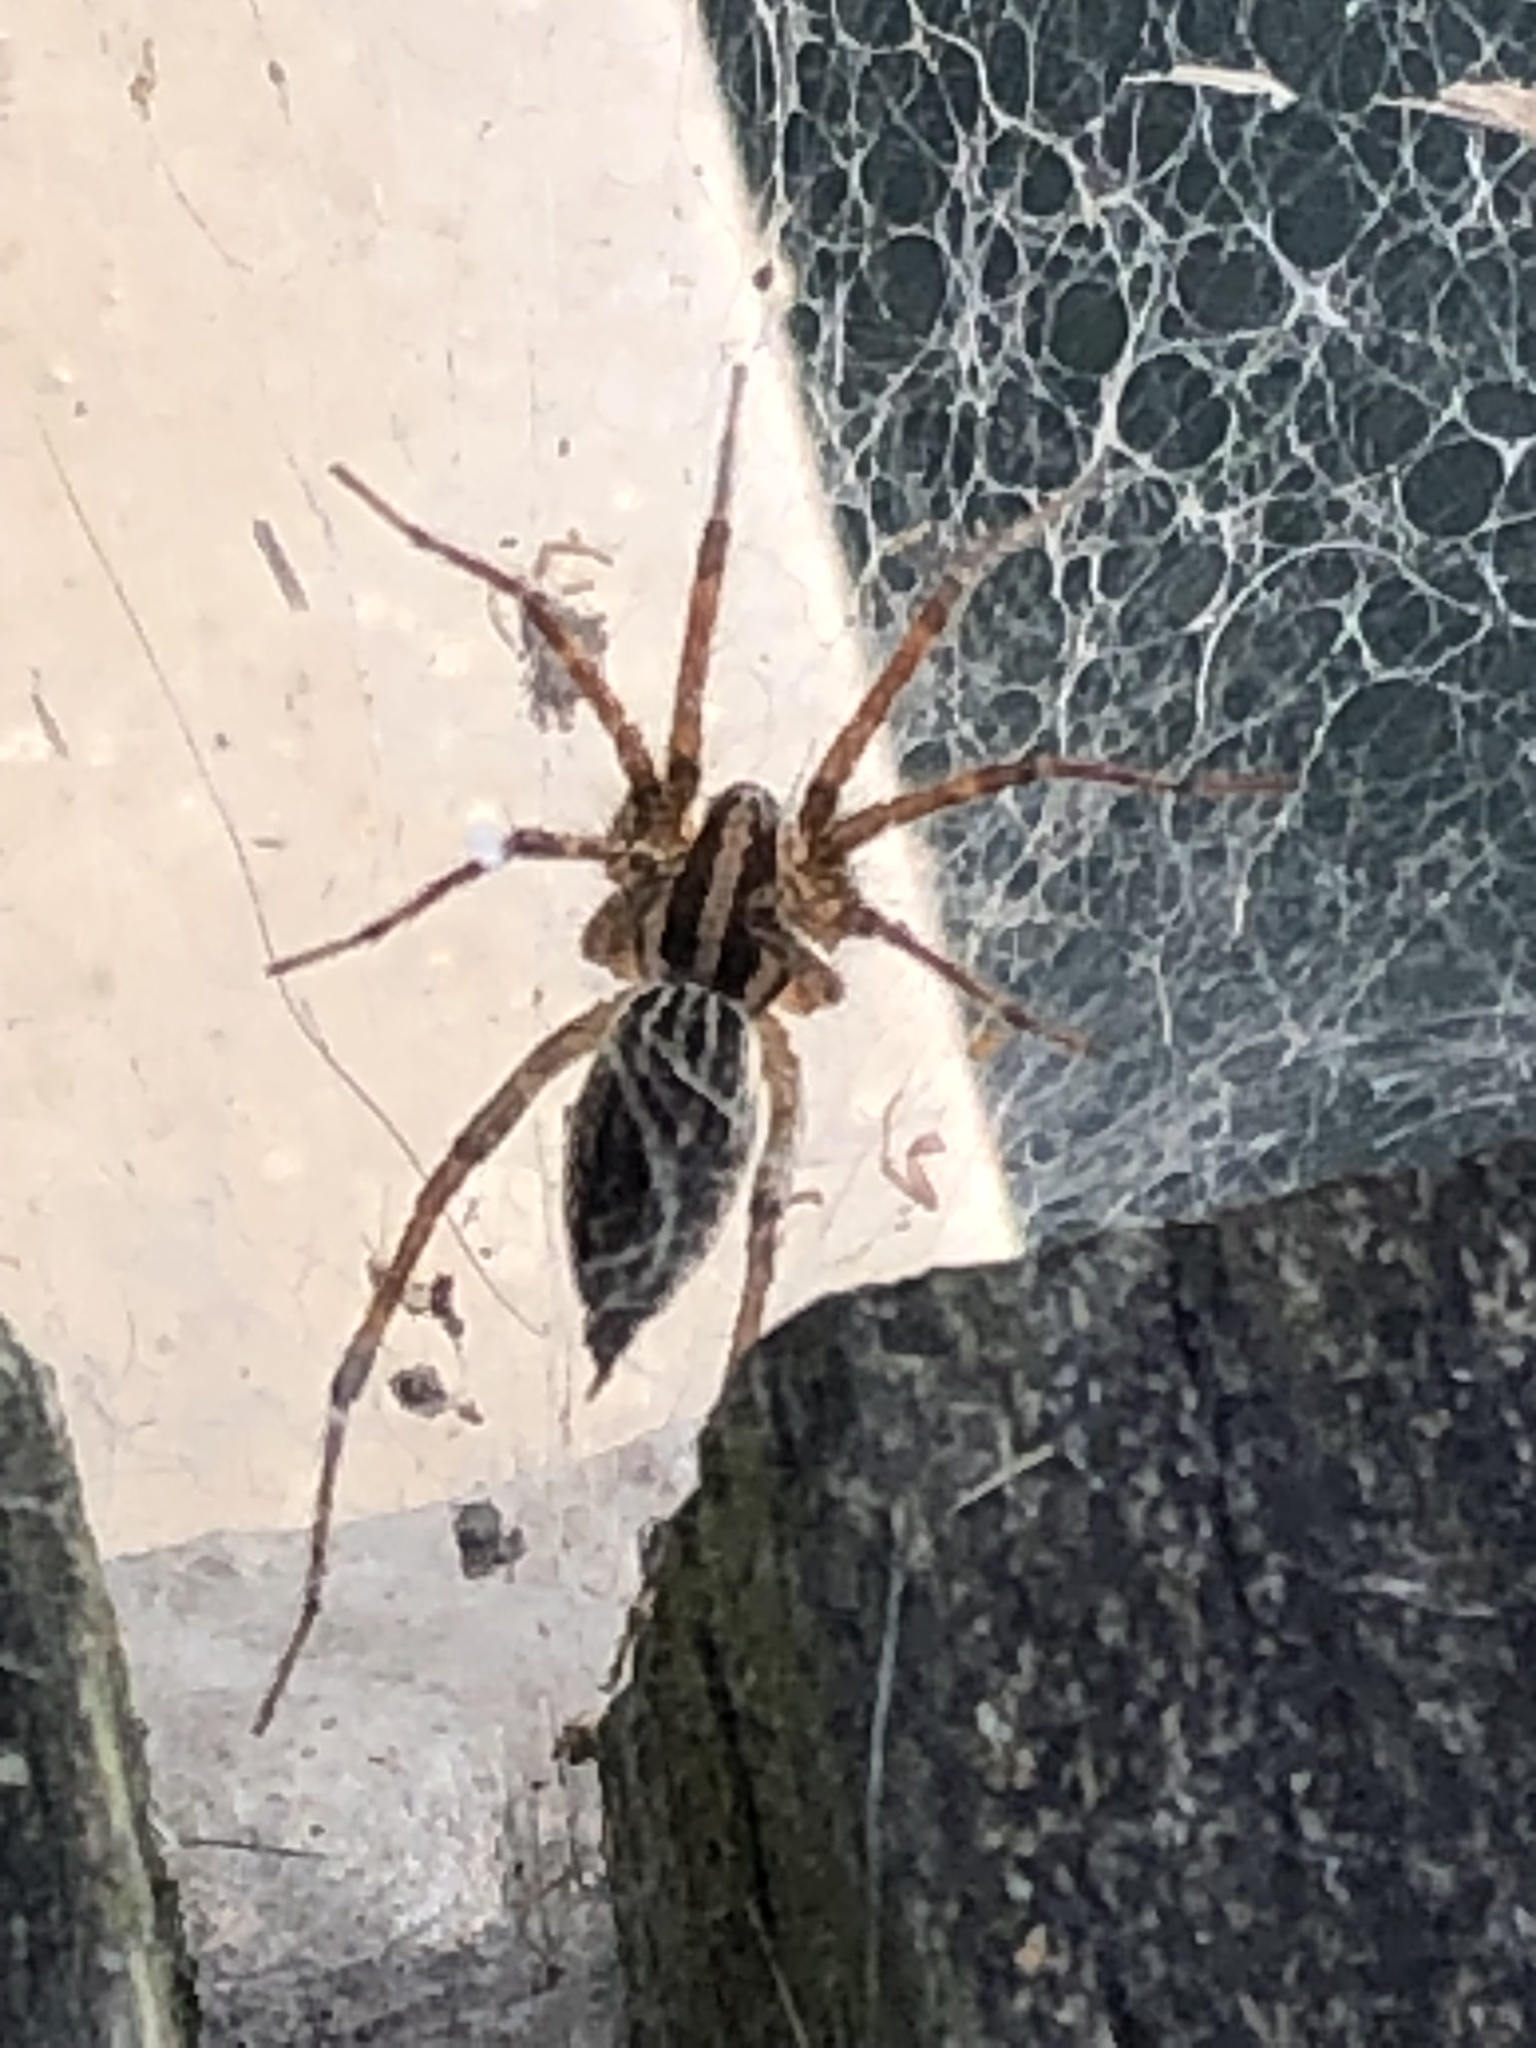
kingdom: Animalia
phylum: Arthropoda
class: Arachnida
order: Araneae
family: Agelenidae
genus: Agelenopsis
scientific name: Agelenopsis
